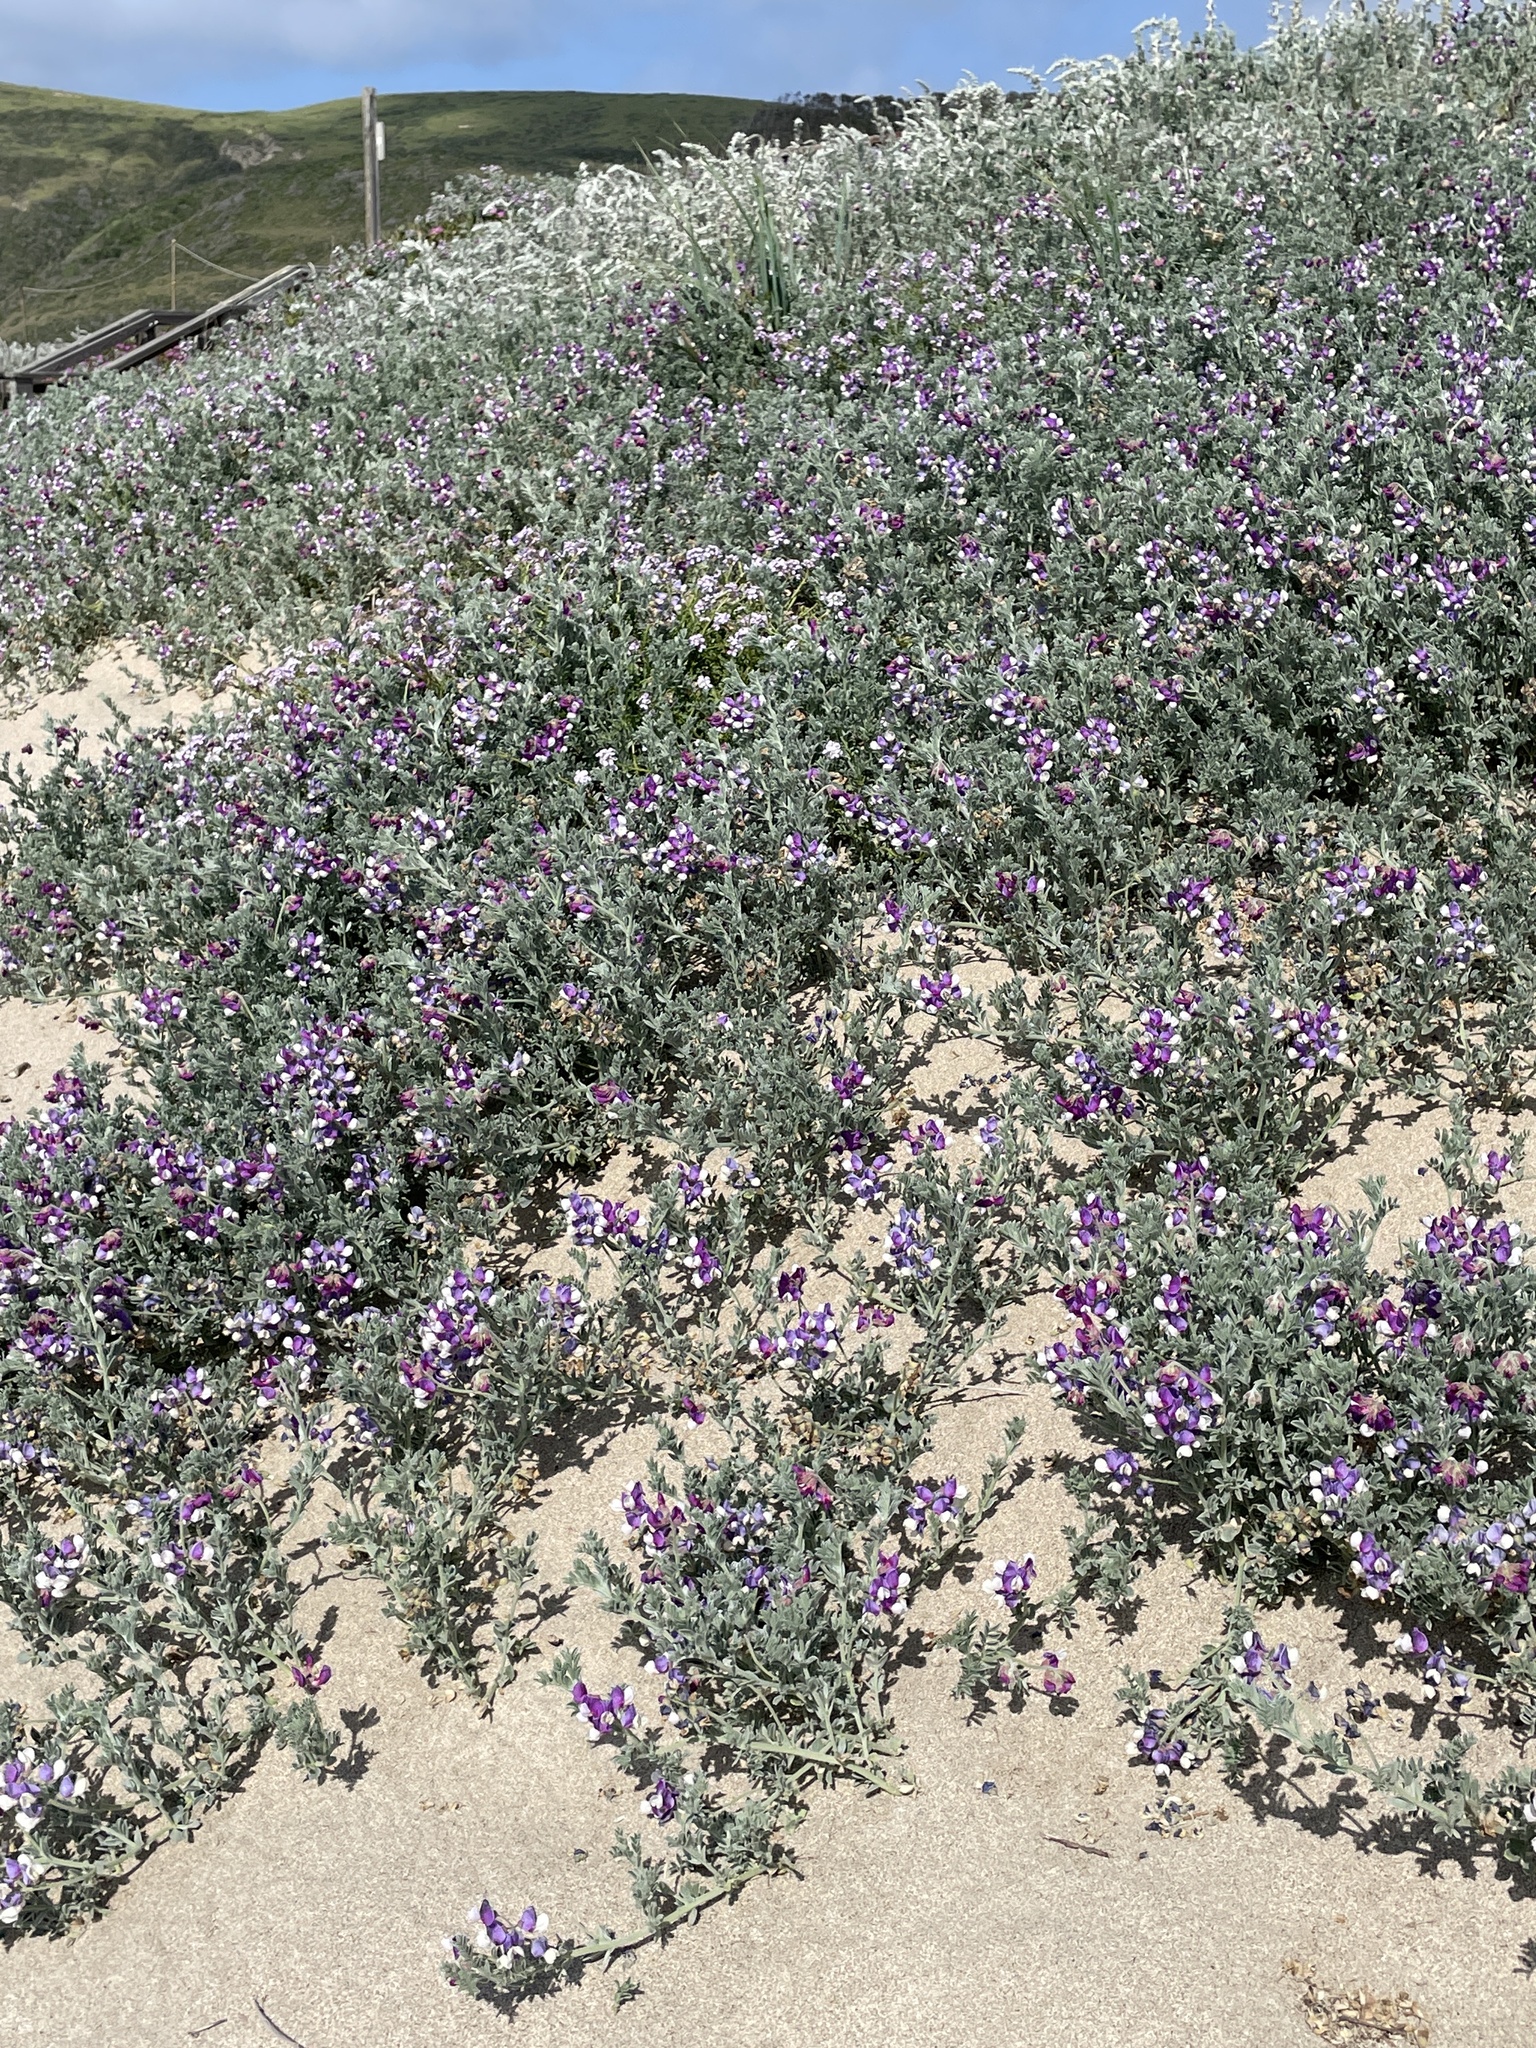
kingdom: Plantae
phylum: Tracheophyta
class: Magnoliopsida
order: Fabales
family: Fabaceae
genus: Lathyrus
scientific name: Lathyrus littoralis
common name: Dune sweet pea
